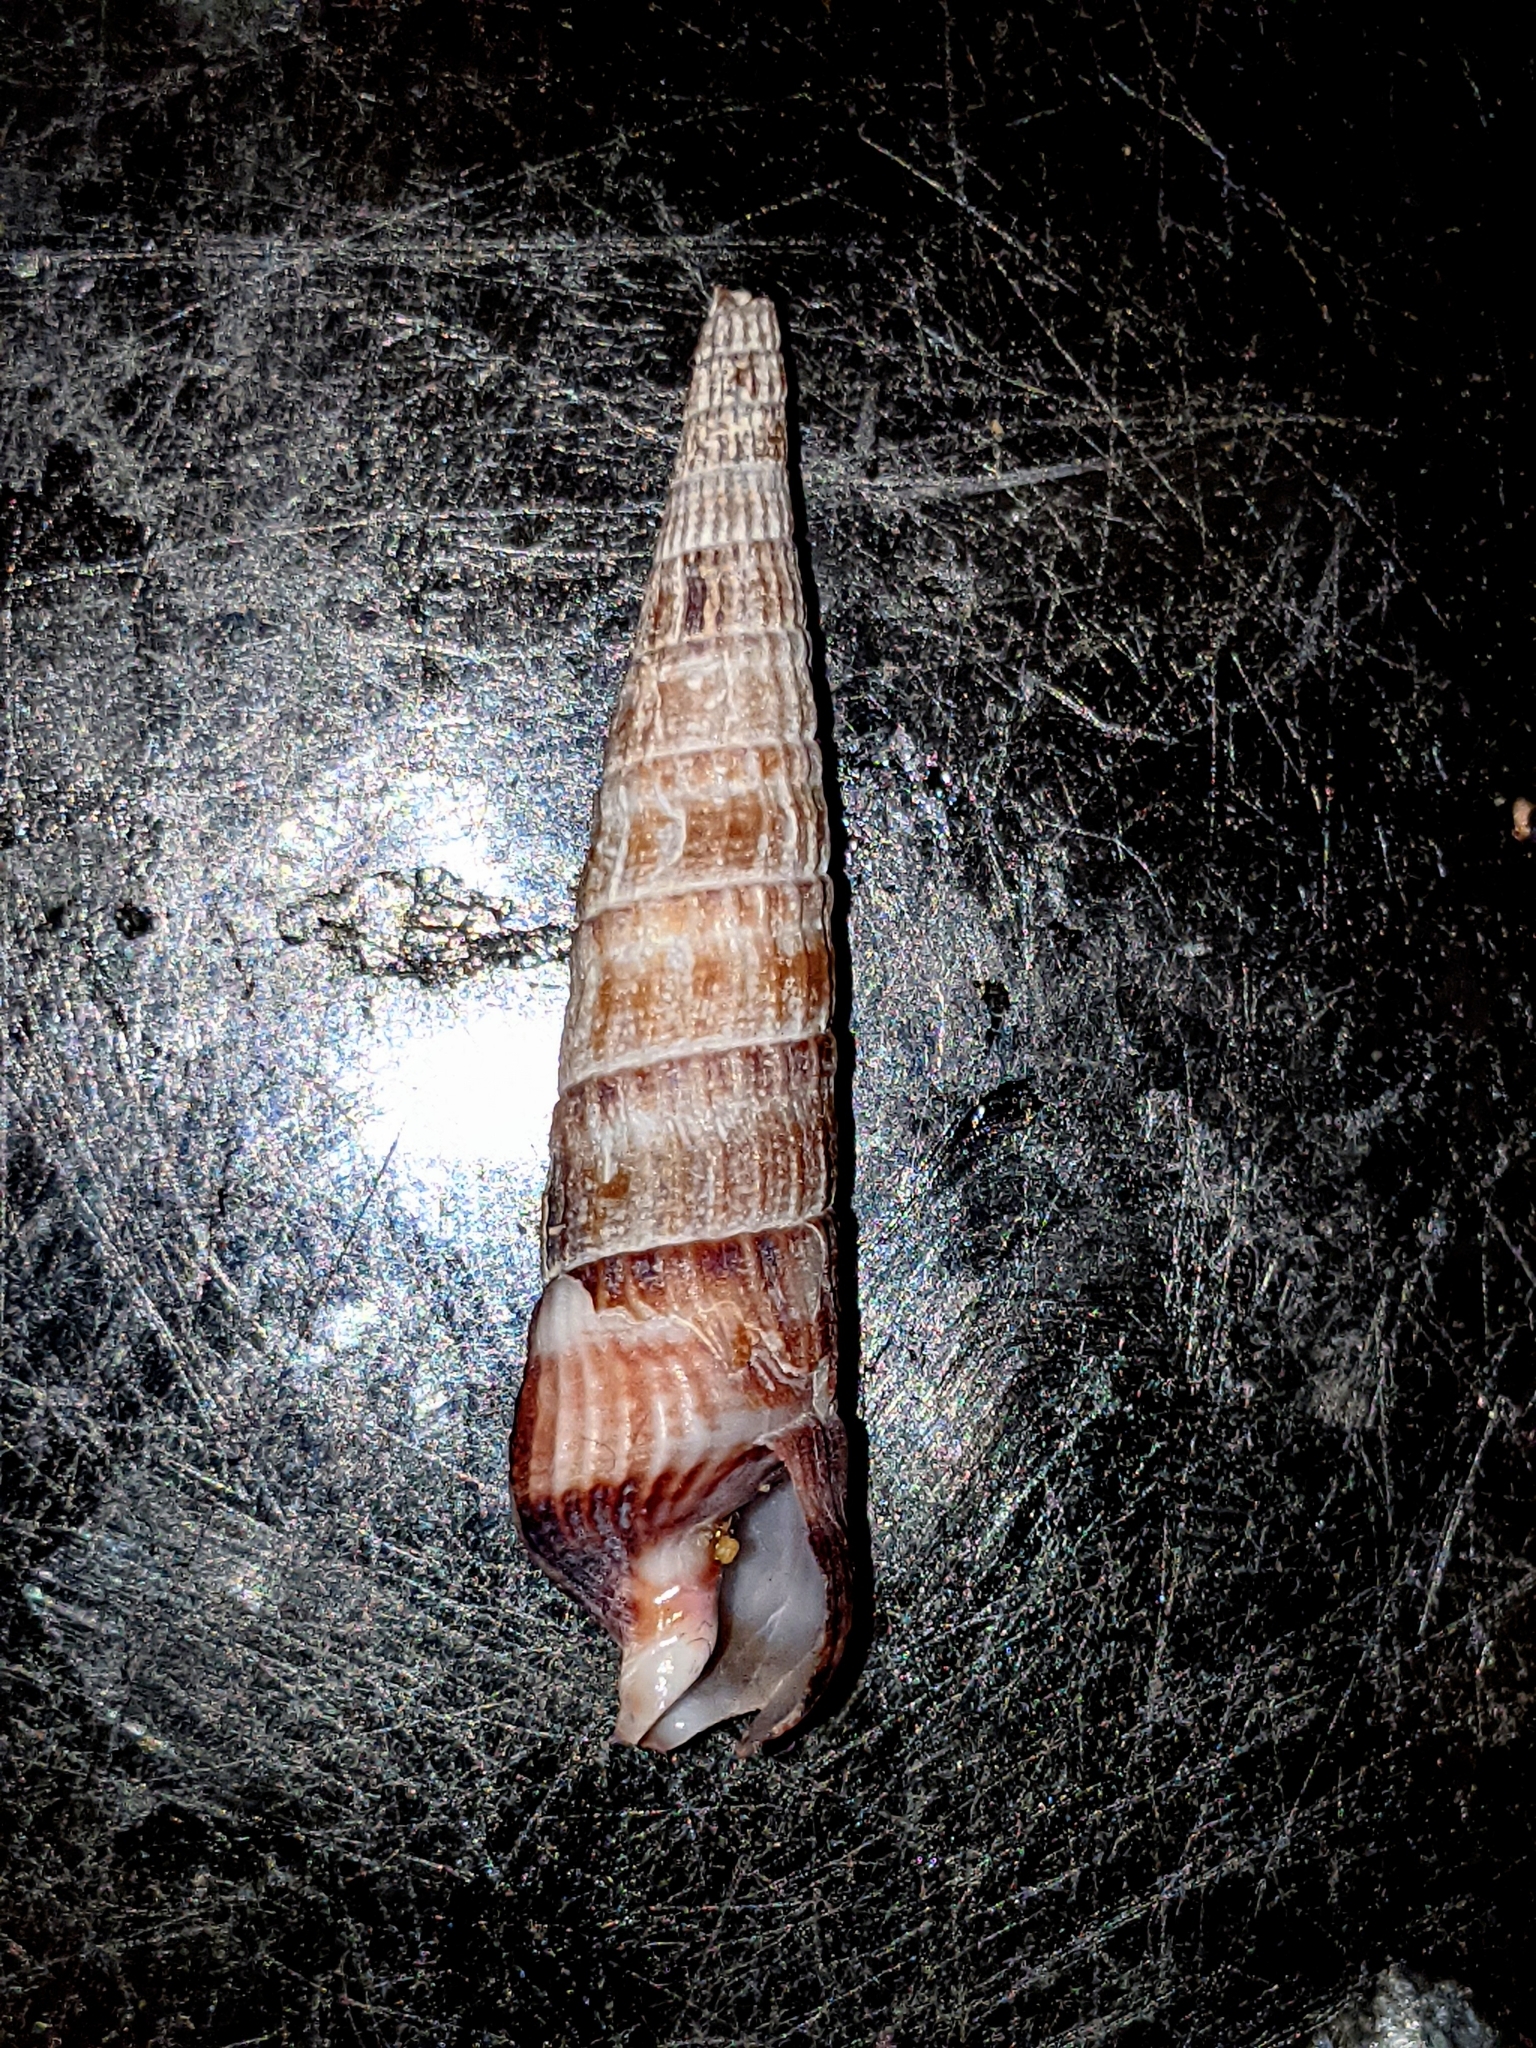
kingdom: Animalia
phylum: Mollusca
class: Gastropoda
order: Neogastropoda
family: Terebridae
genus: Neoterebra
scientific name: Neoterebra pedroana
